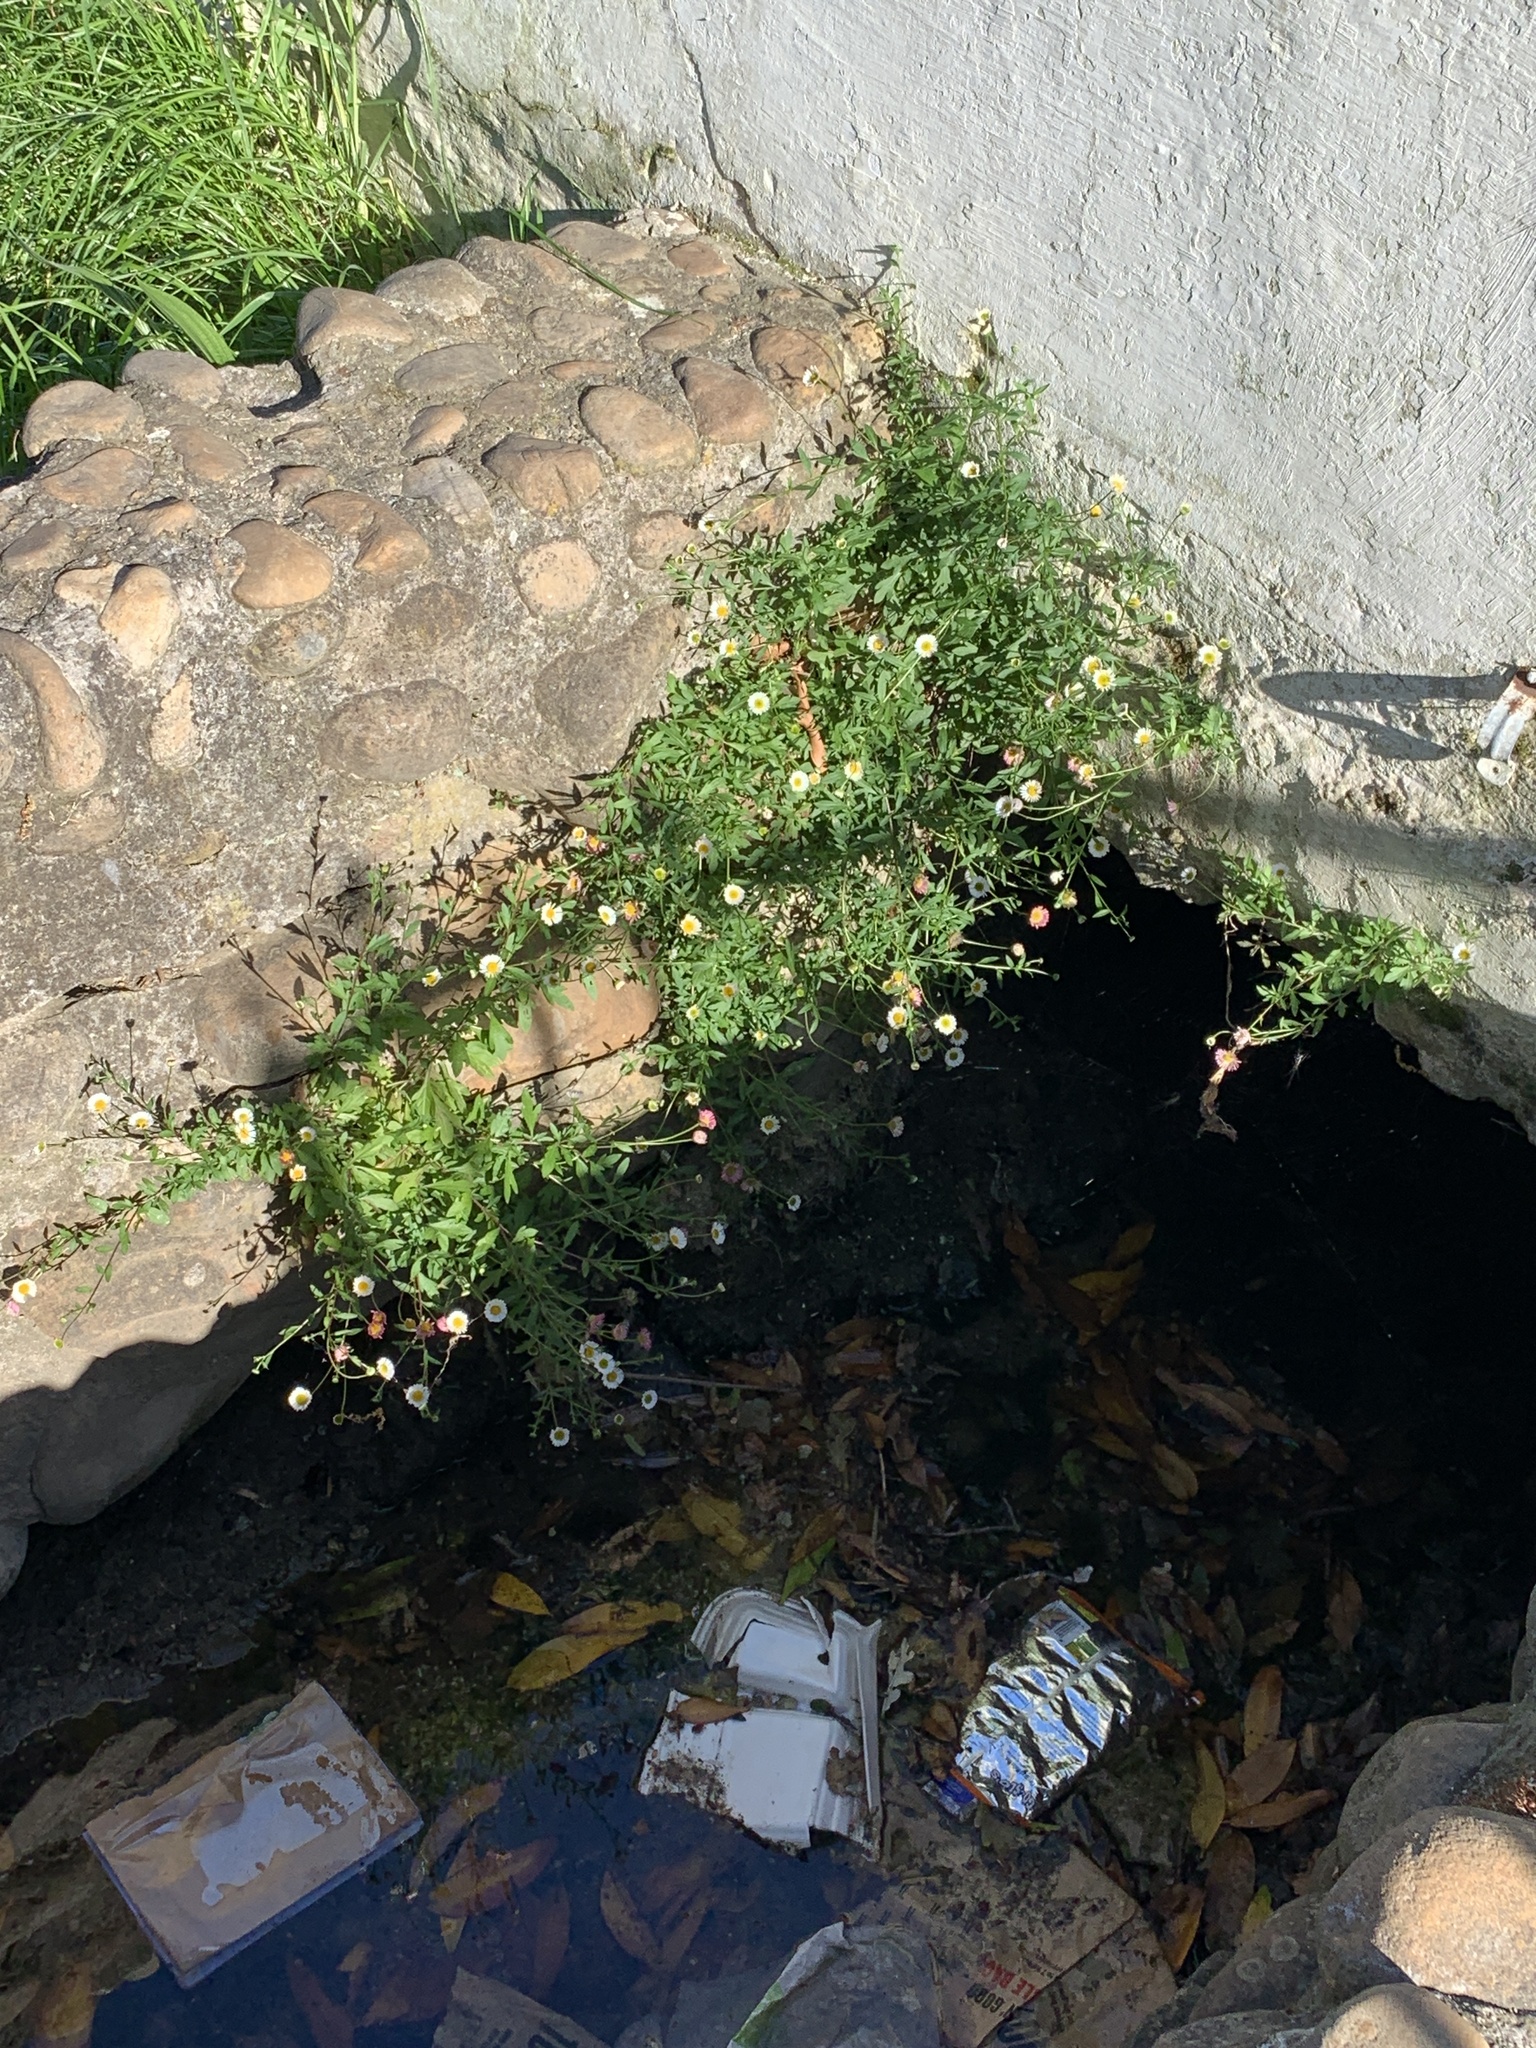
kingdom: Plantae
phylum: Tracheophyta
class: Magnoliopsida
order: Asterales
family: Asteraceae
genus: Erigeron
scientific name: Erigeron karvinskianus
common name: Mexican fleabane
